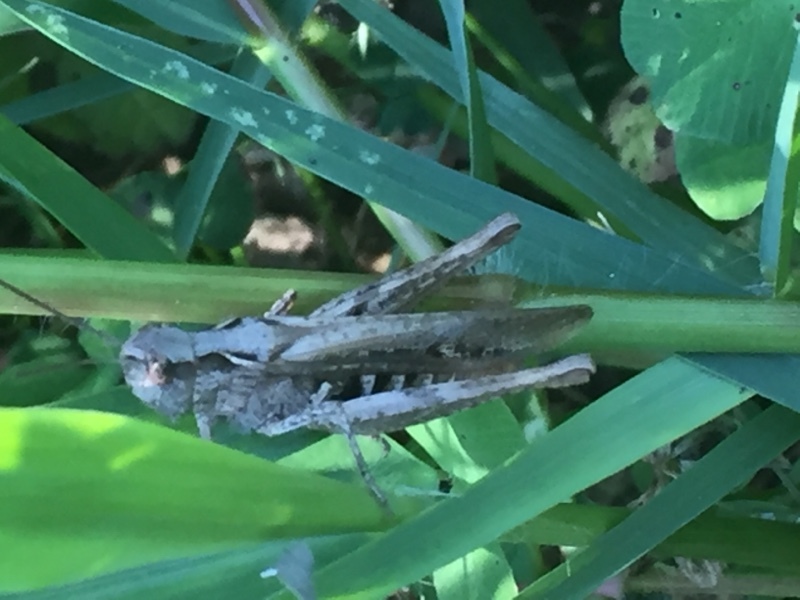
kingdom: Animalia
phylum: Arthropoda
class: Insecta
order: Orthoptera
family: Acrididae
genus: Chorthippus
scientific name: Chorthippus yersini
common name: Yersin's grasshopper
